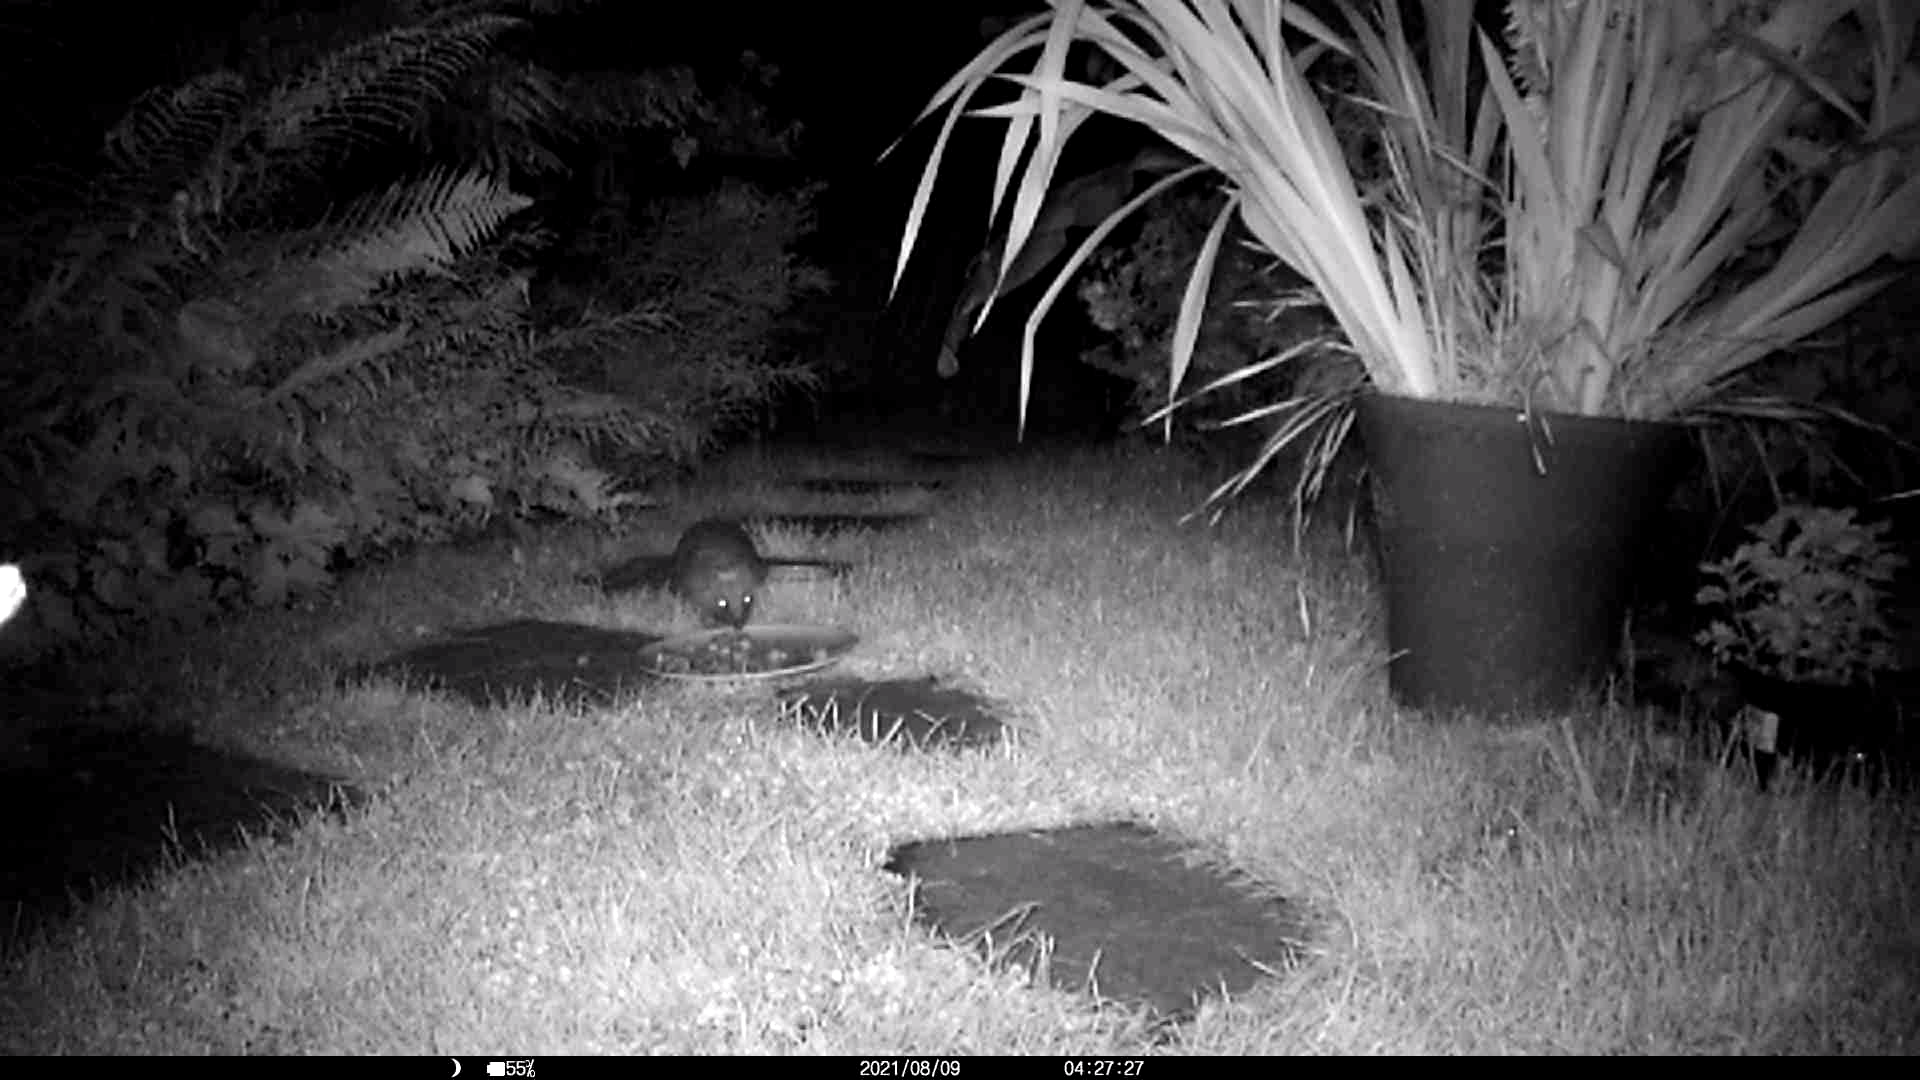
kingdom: Animalia
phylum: Chordata
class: Mammalia
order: Erinaceomorpha
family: Erinaceidae
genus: Erinaceus
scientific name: Erinaceus europaeus
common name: West european hedgehog
